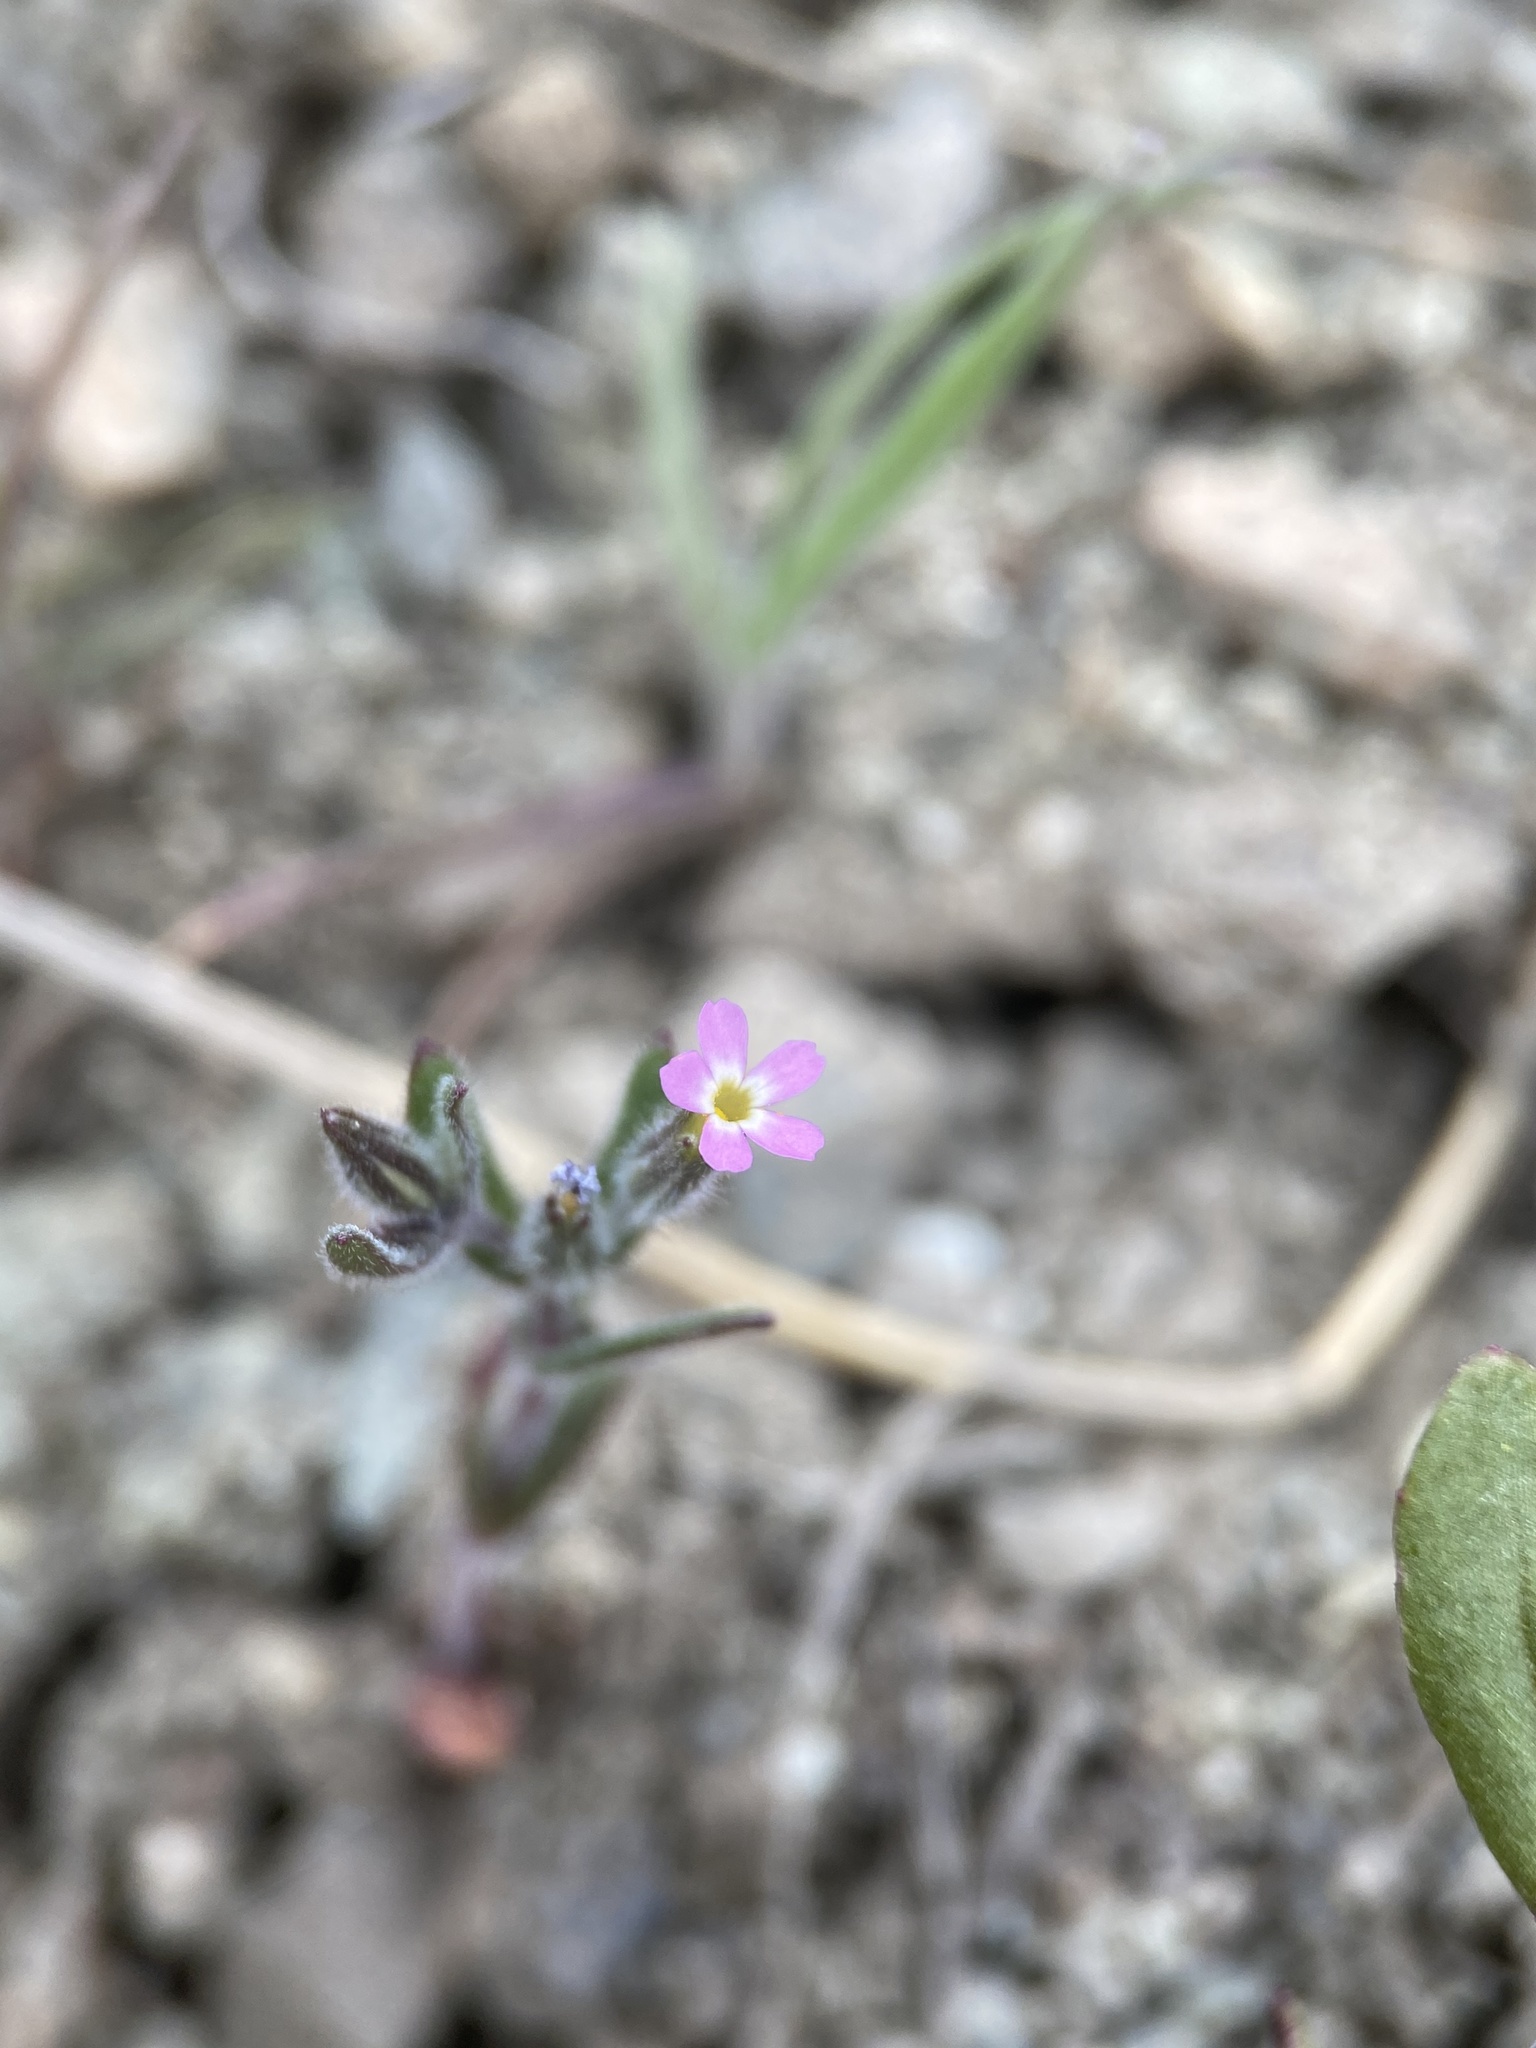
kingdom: Plantae
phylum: Tracheophyta
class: Magnoliopsida
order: Ericales
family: Polemoniaceae
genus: Phlox
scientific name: Phlox gracilis
